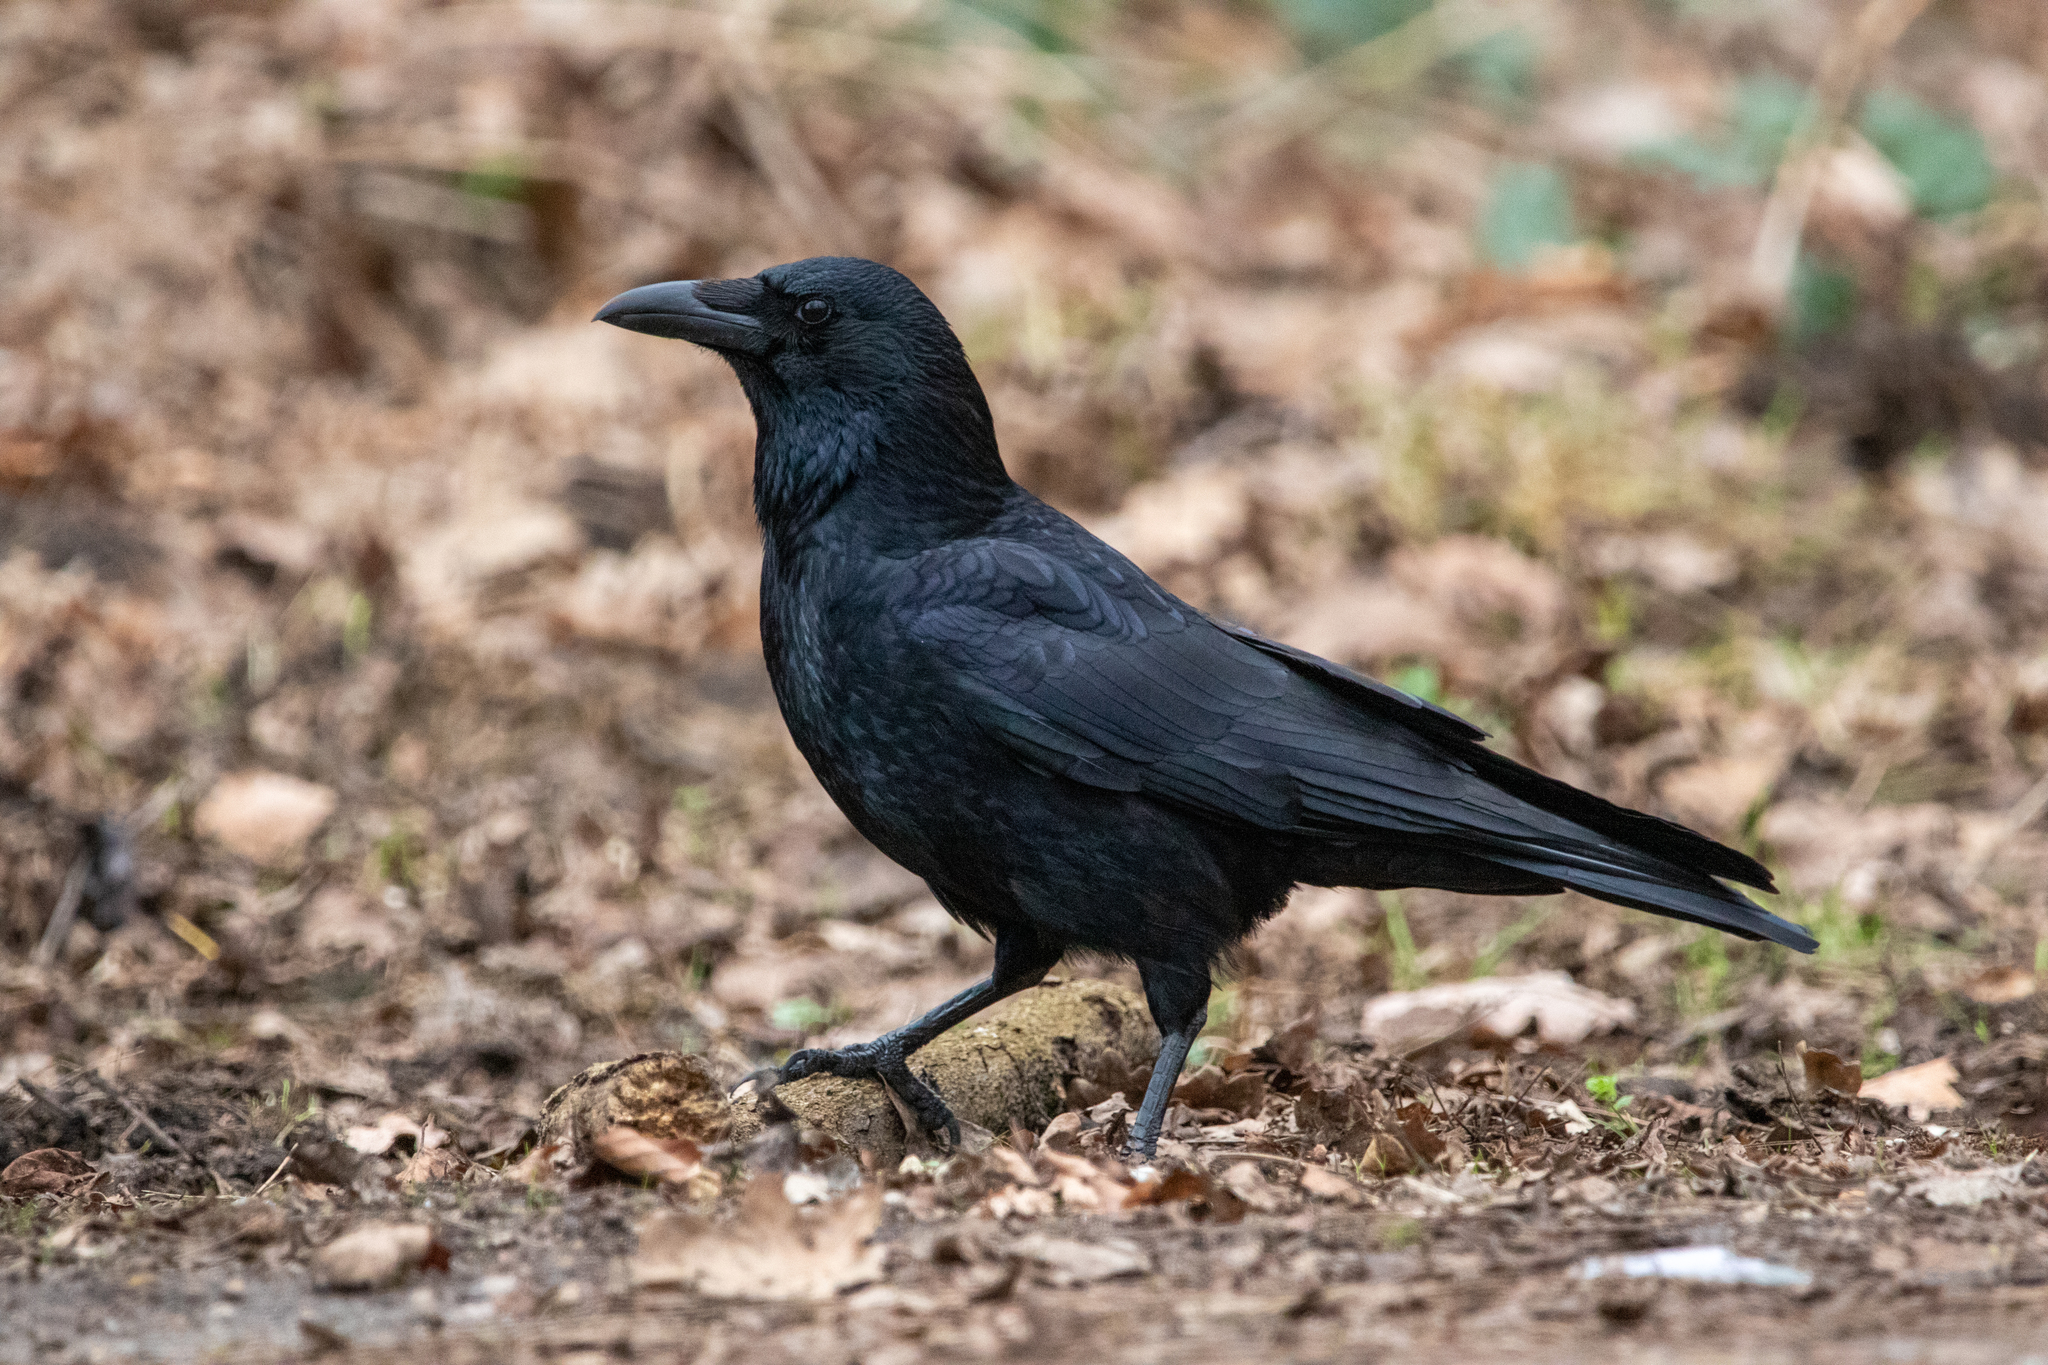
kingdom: Animalia
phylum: Chordata
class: Aves
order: Passeriformes
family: Corvidae
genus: Corvus
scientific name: Corvus corone
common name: Carrion crow
